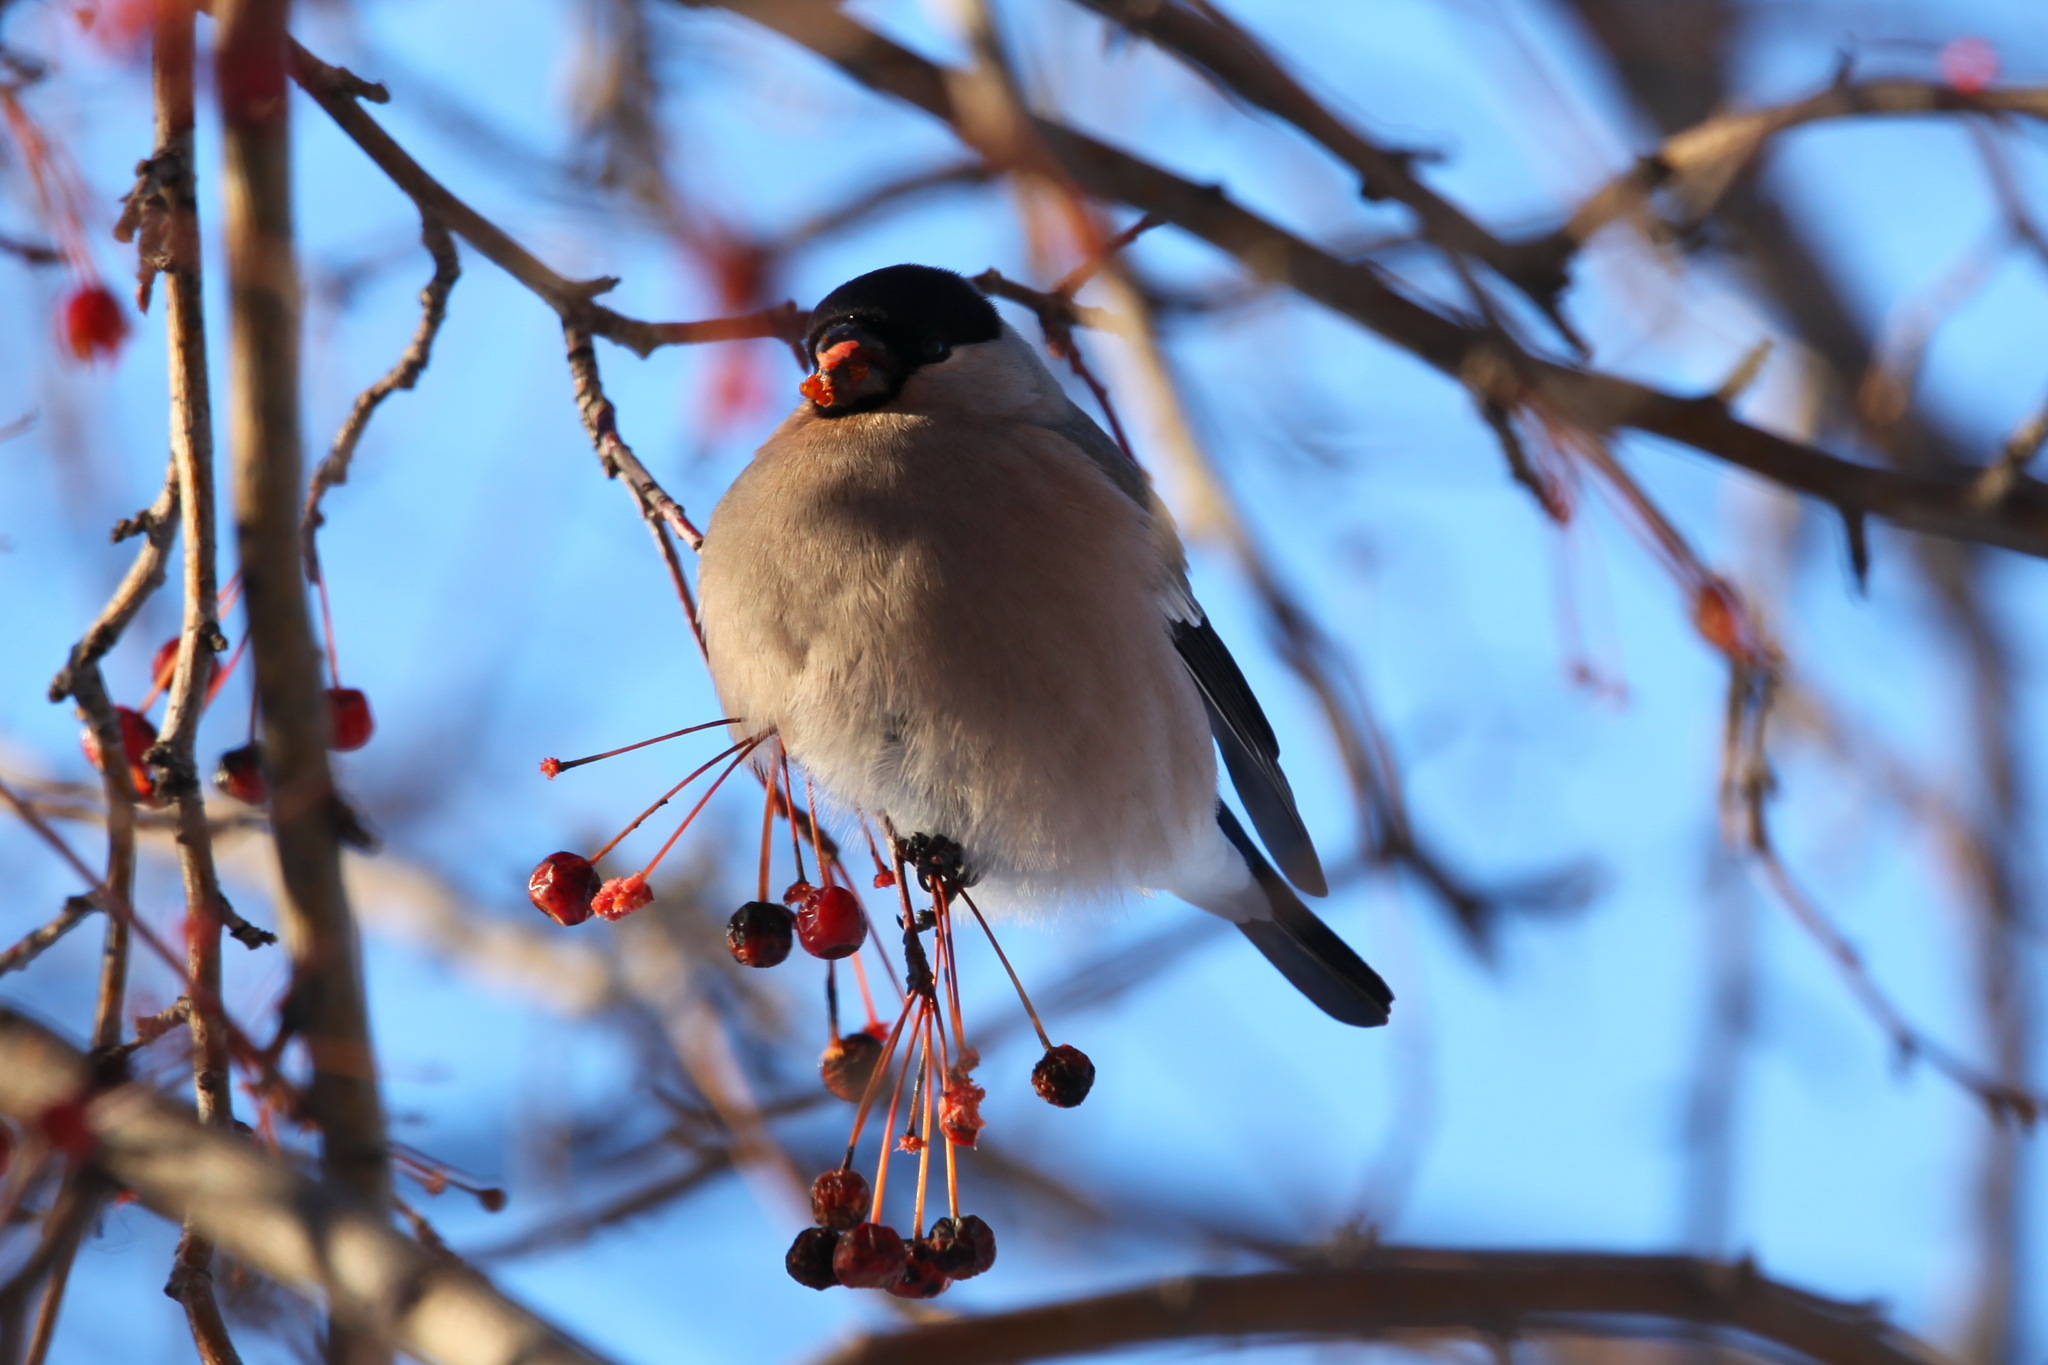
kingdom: Animalia
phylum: Chordata
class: Aves
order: Passeriformes
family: Fringillidae
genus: Pyrrhula
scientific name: Pyrrhula pyrrhula
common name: Eurasian bullfinch
